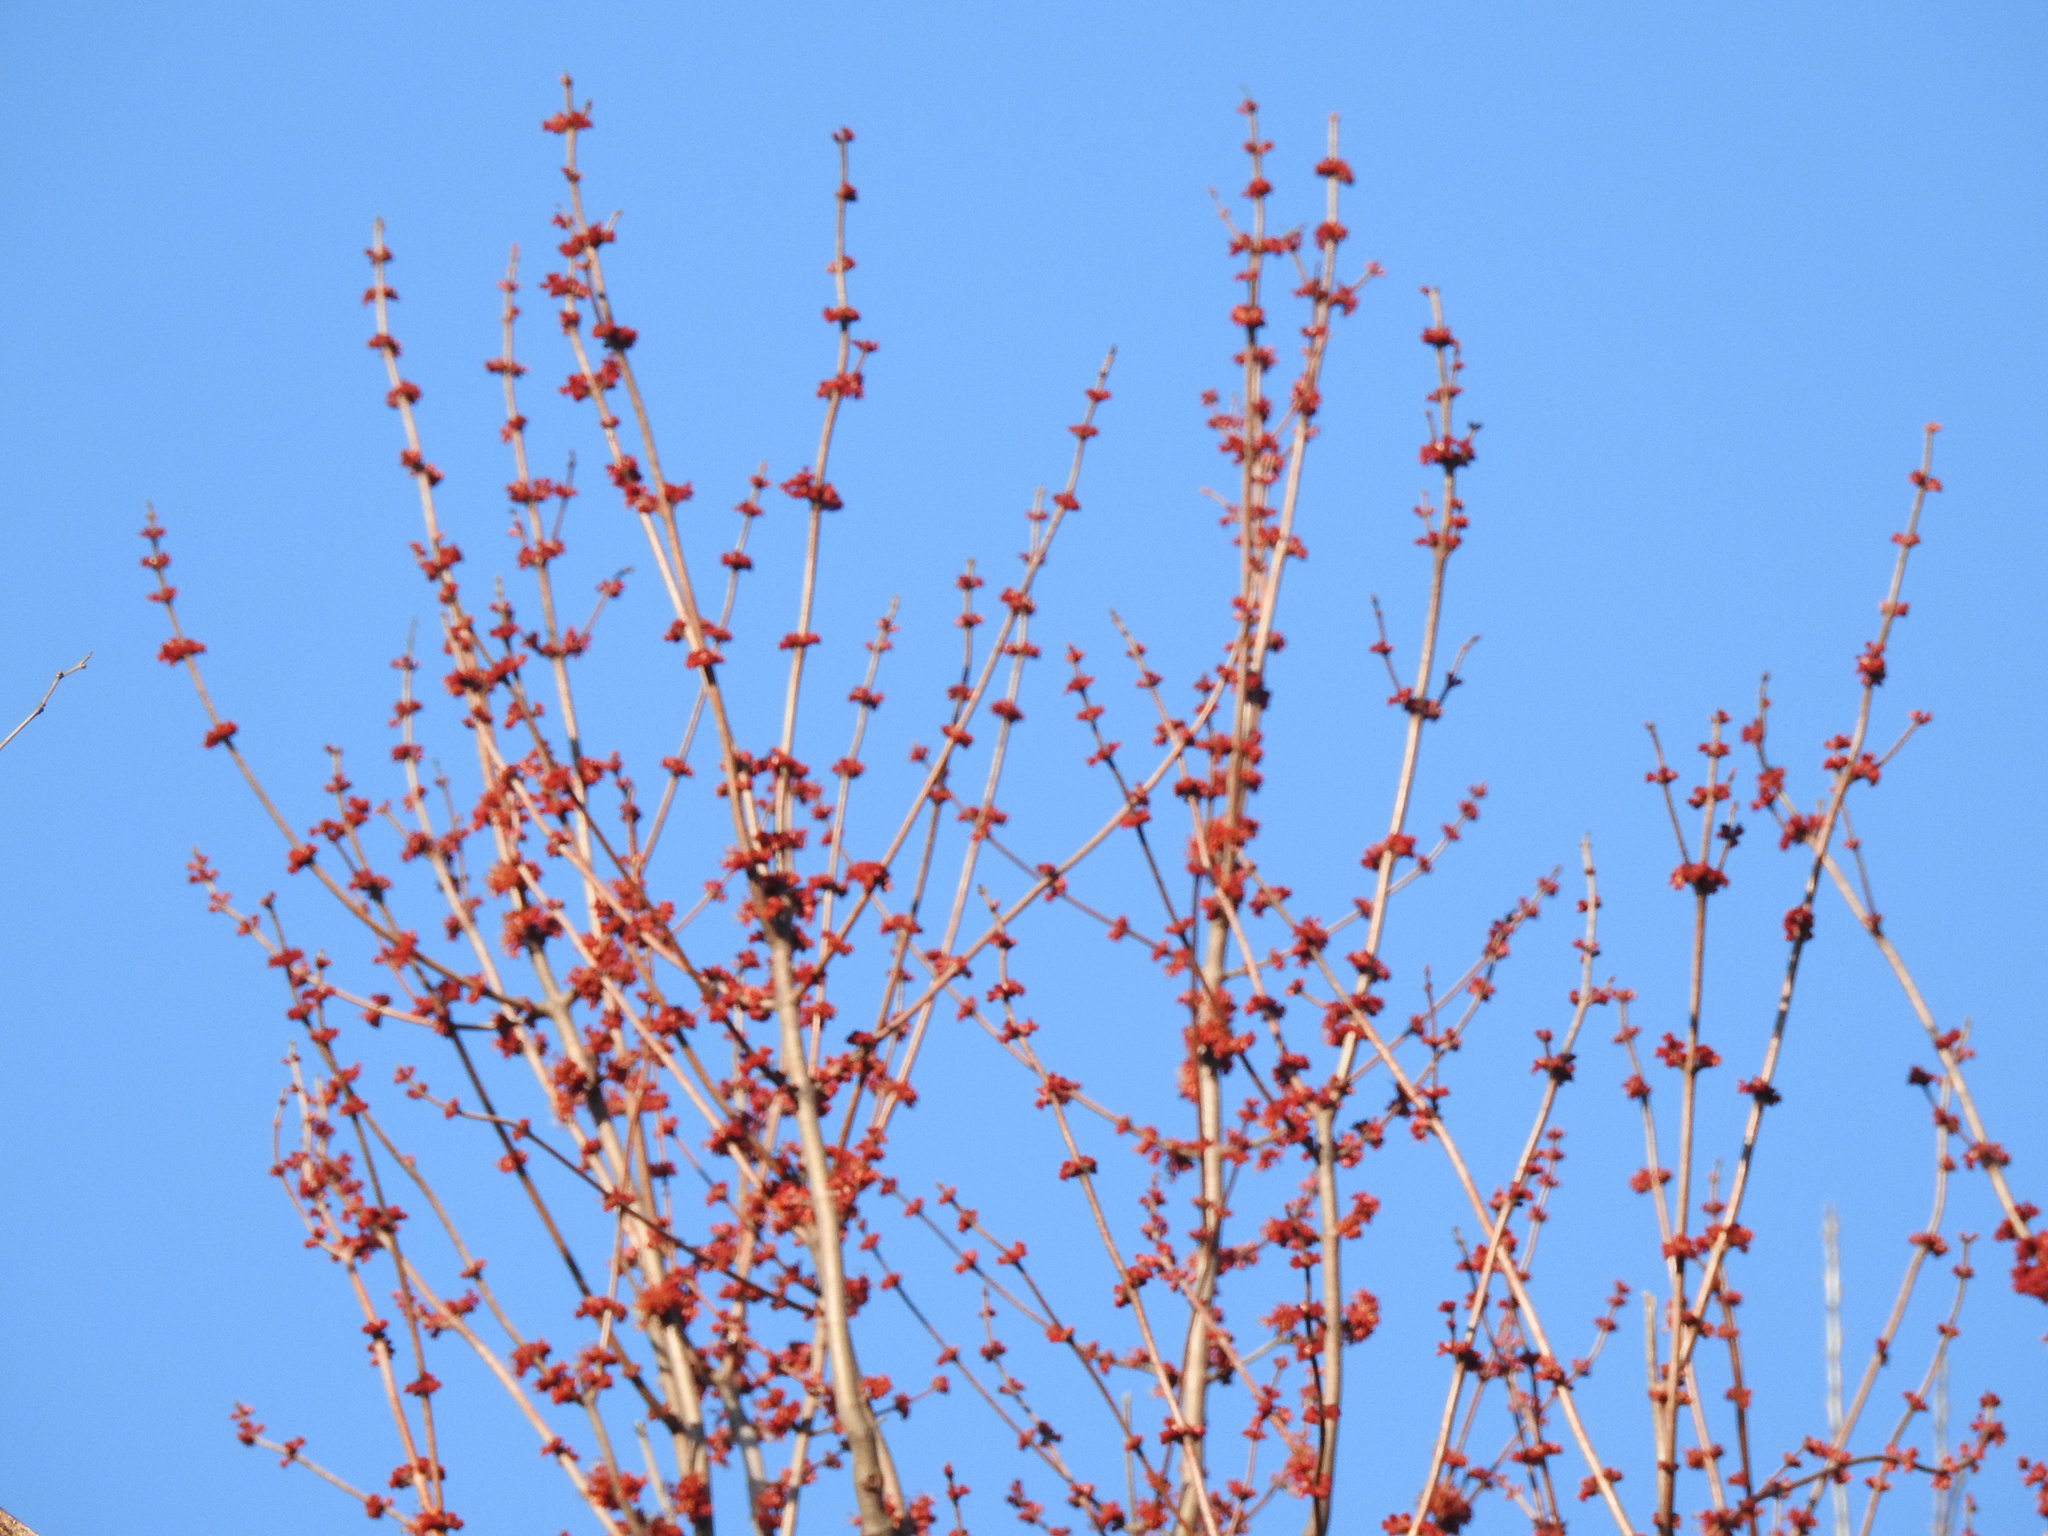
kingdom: Plantae
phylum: Tracheophyta
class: Magnoliopsida
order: Sapindales
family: Sapindaceae
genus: Acer
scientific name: Acer rubrum
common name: Red maple
